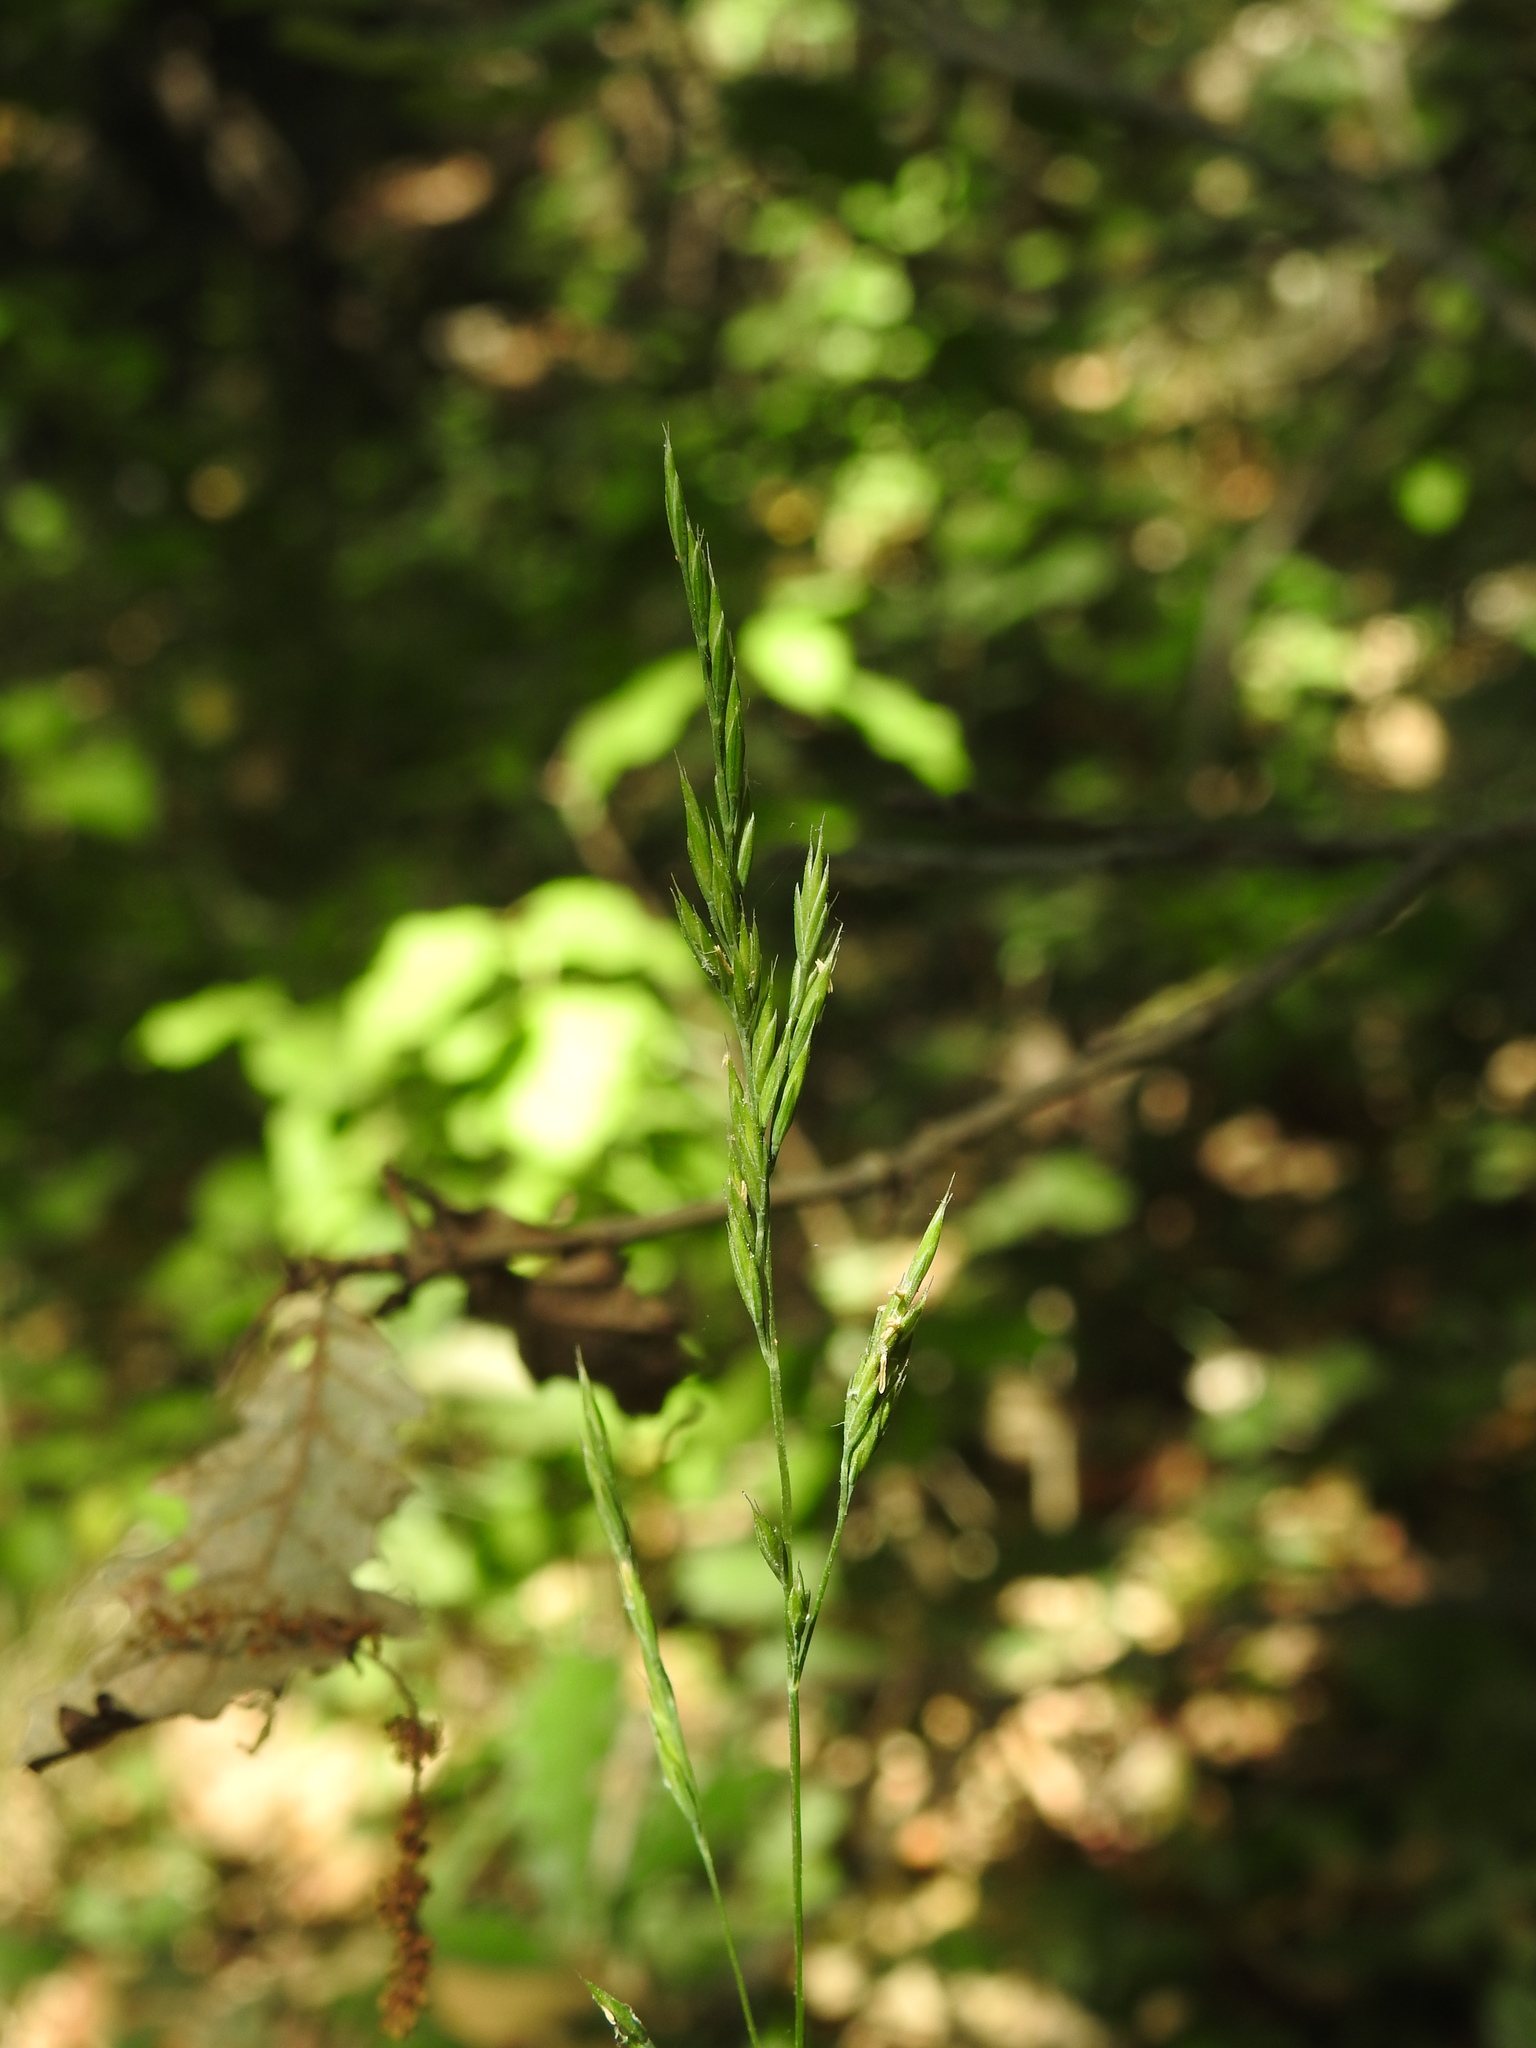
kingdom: Plantae
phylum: Tracheophyta
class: Liliopsida
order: Poales
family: Poaceae
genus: Festuca
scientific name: Festuca heterophylla
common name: Various-leaved fescue
